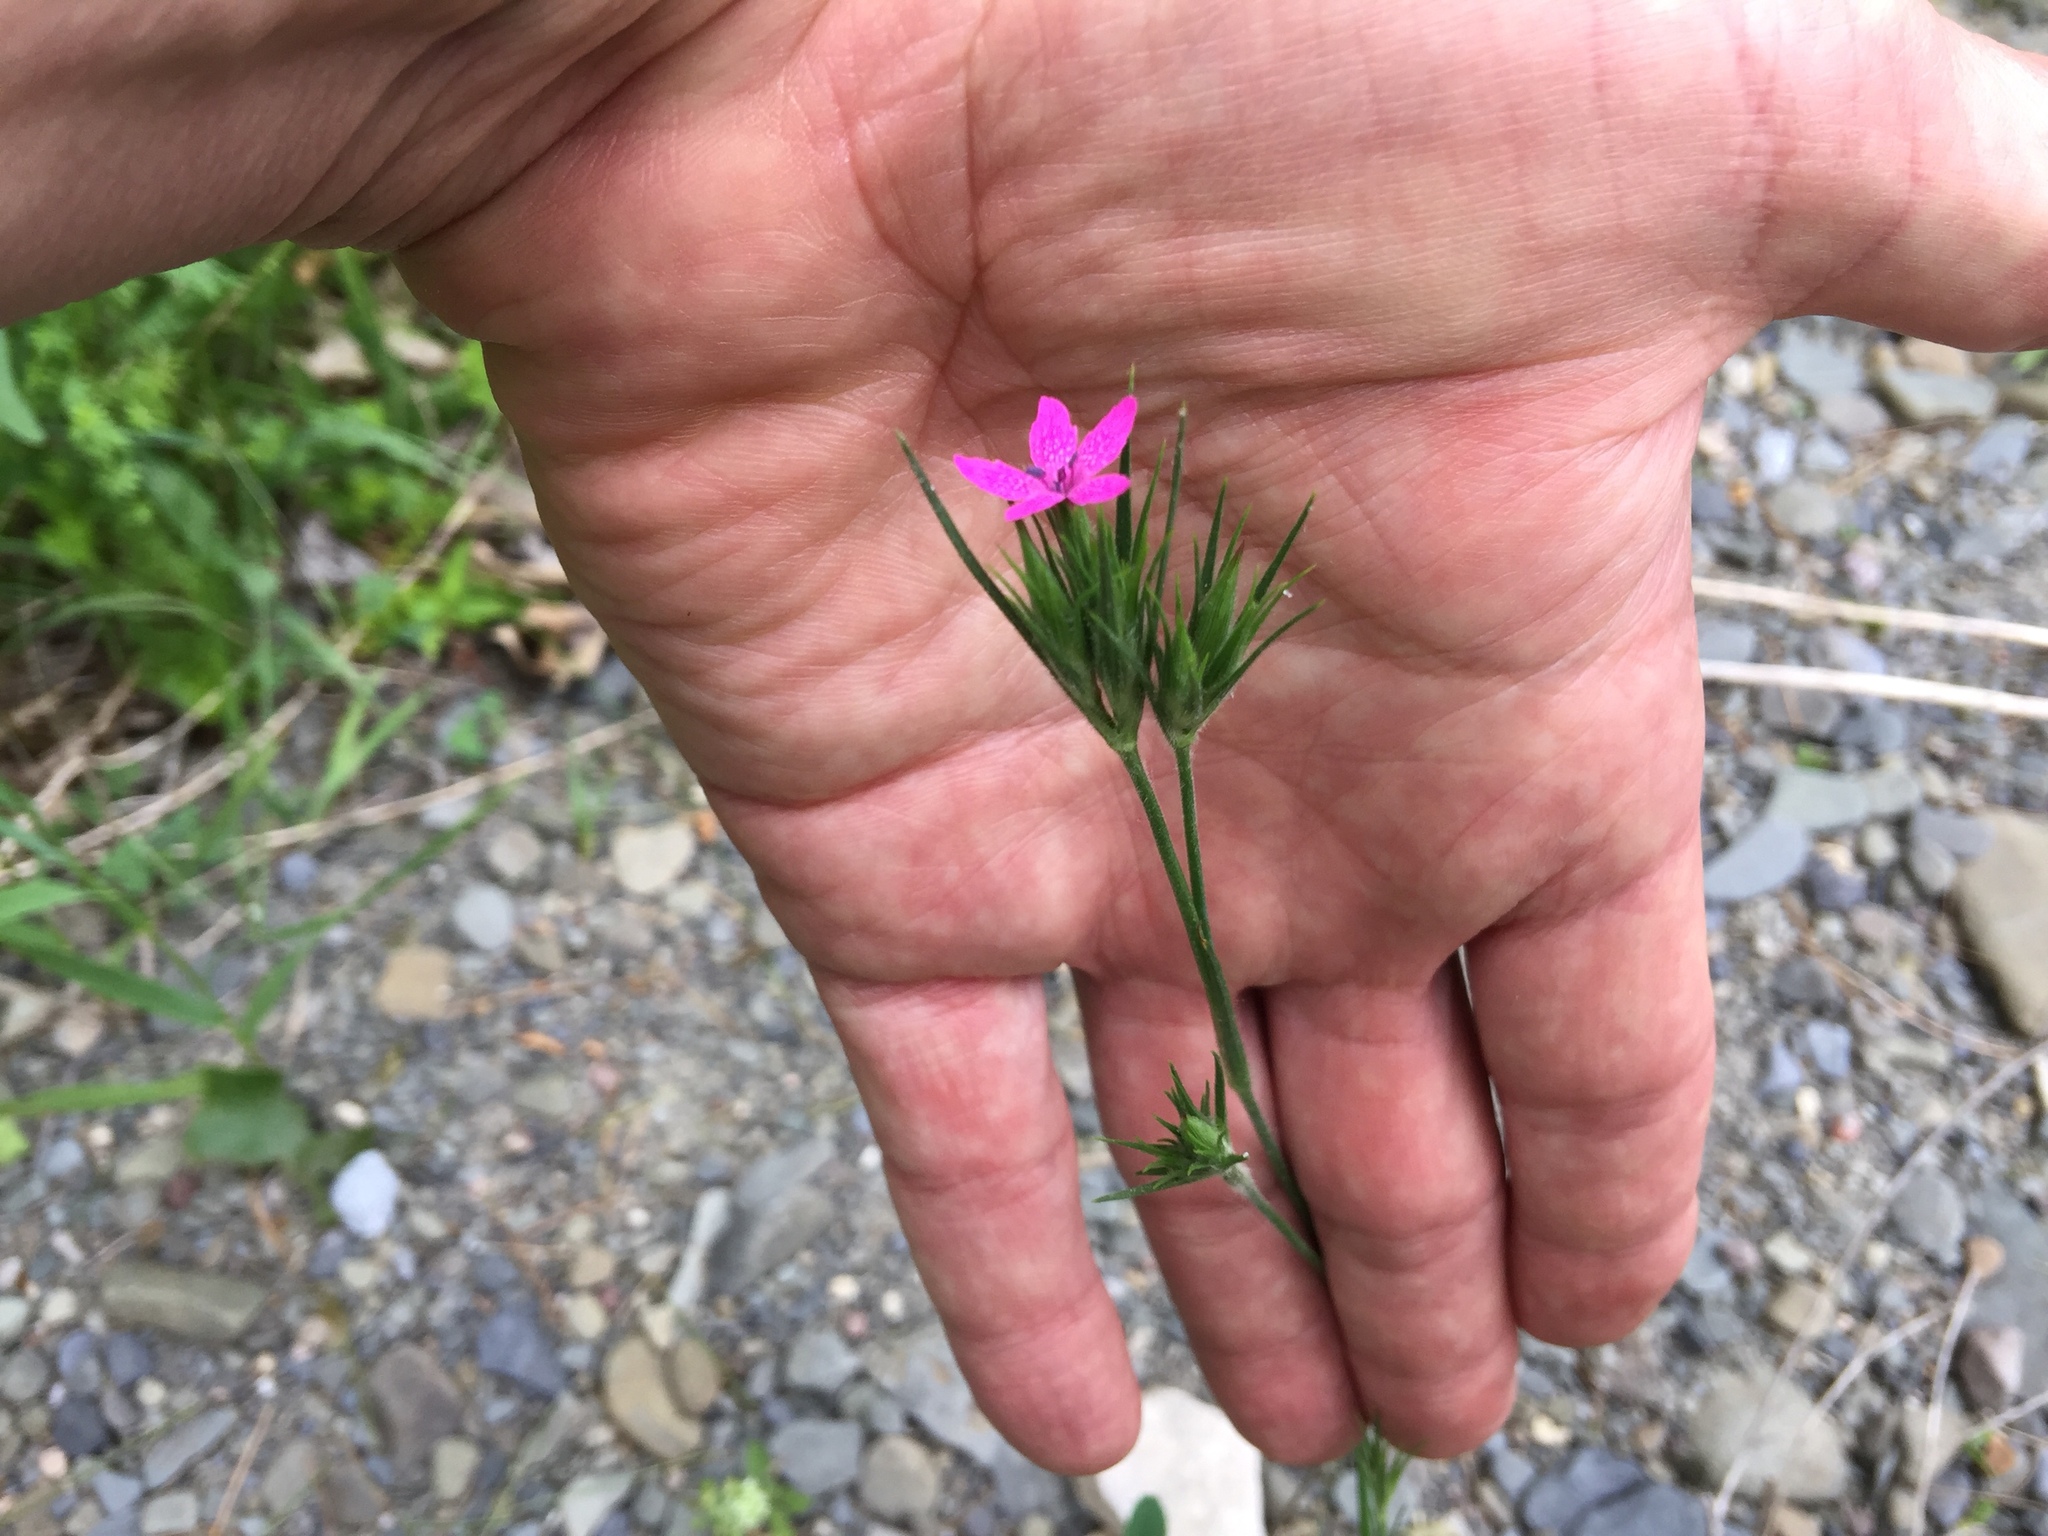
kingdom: Plantae
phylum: Tracheophyta
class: Magnoliopsida
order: Caryophyllales
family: Caryophyllaceae
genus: Dianthus
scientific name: Dianthus armeria
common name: Deptford pink
